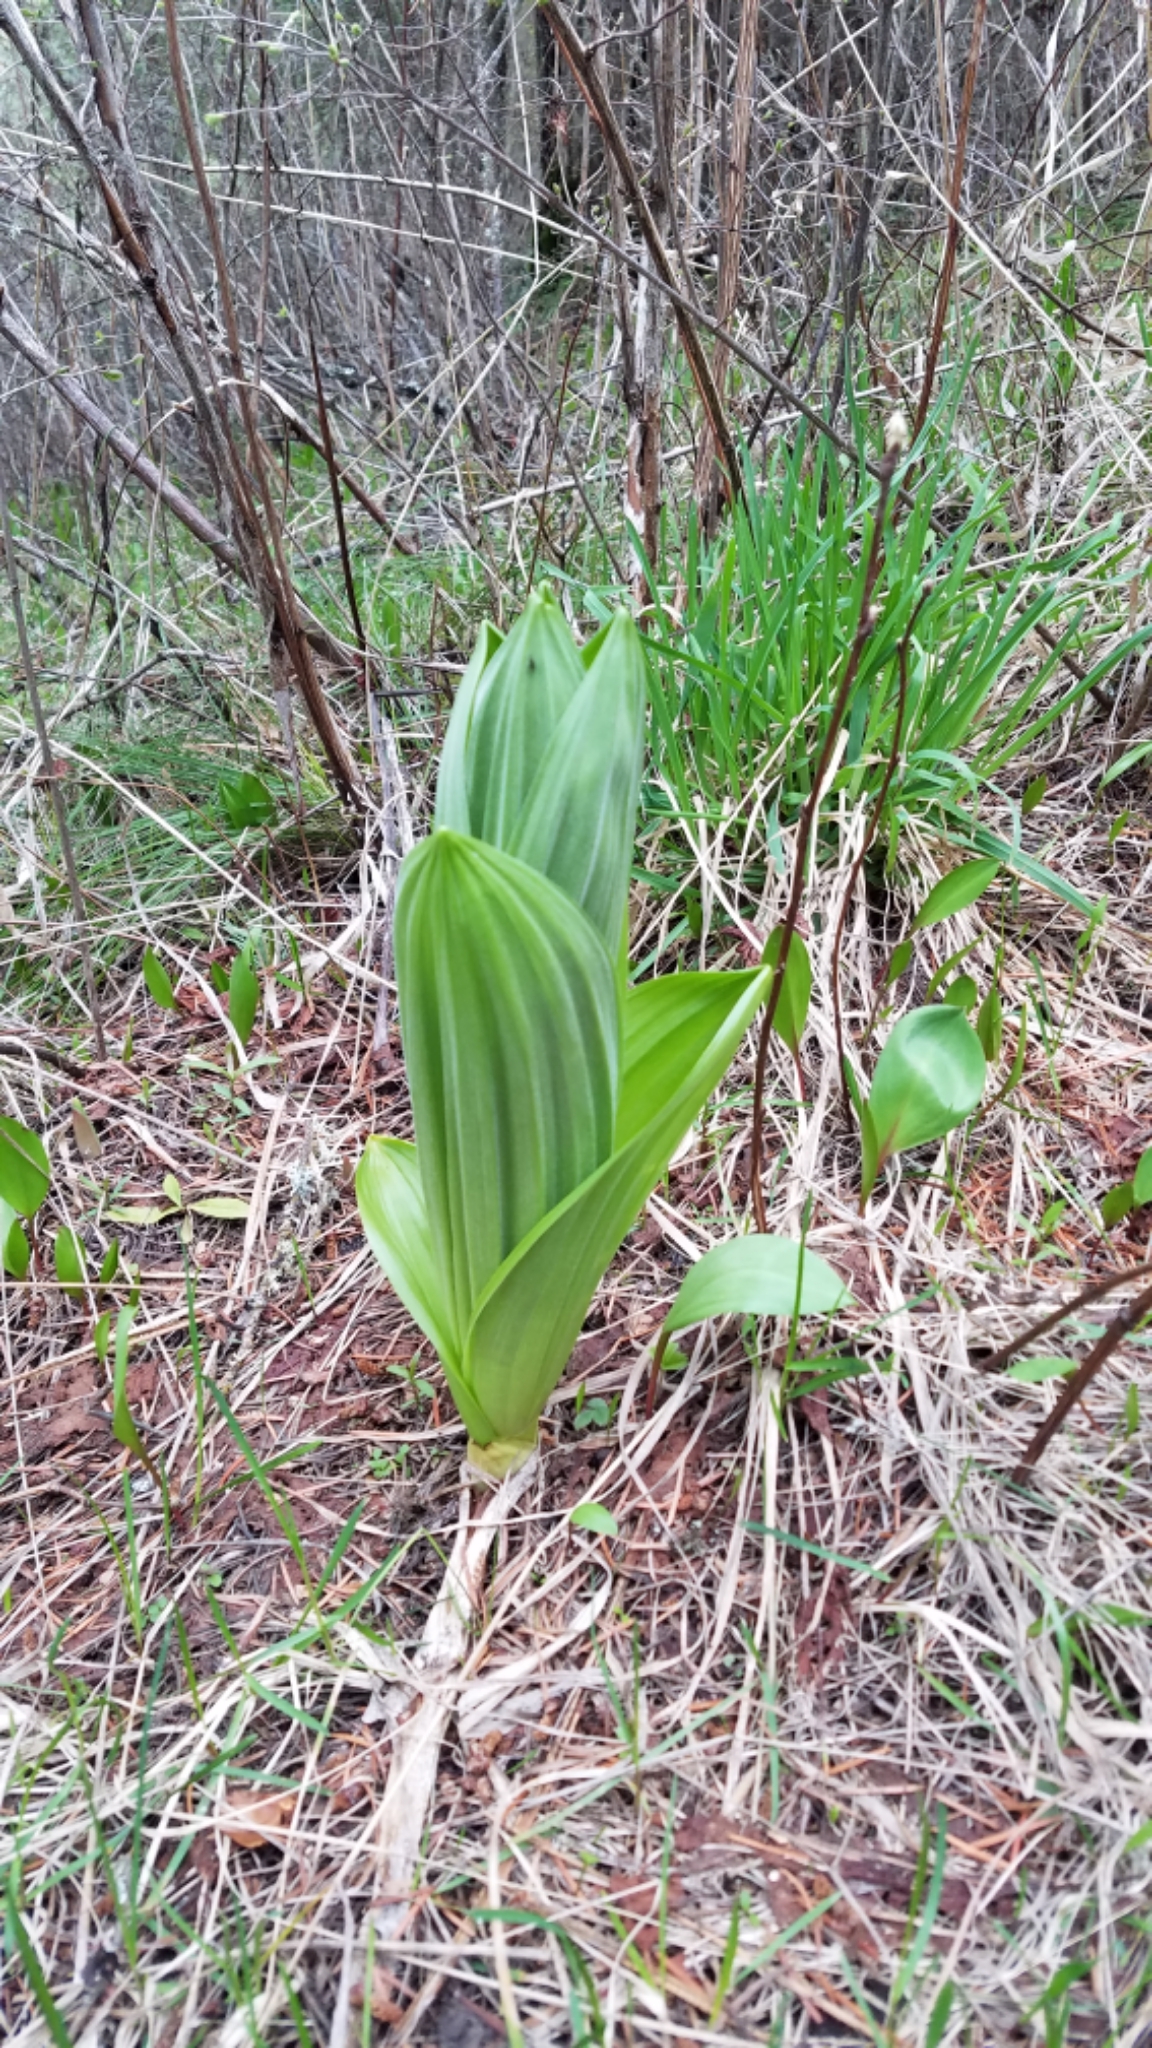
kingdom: Plantae
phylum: Tracheophyta
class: Liliopsida
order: Liliales
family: Melanthiaceae
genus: Veratrum
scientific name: Veratrum californicum
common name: California veratrum
